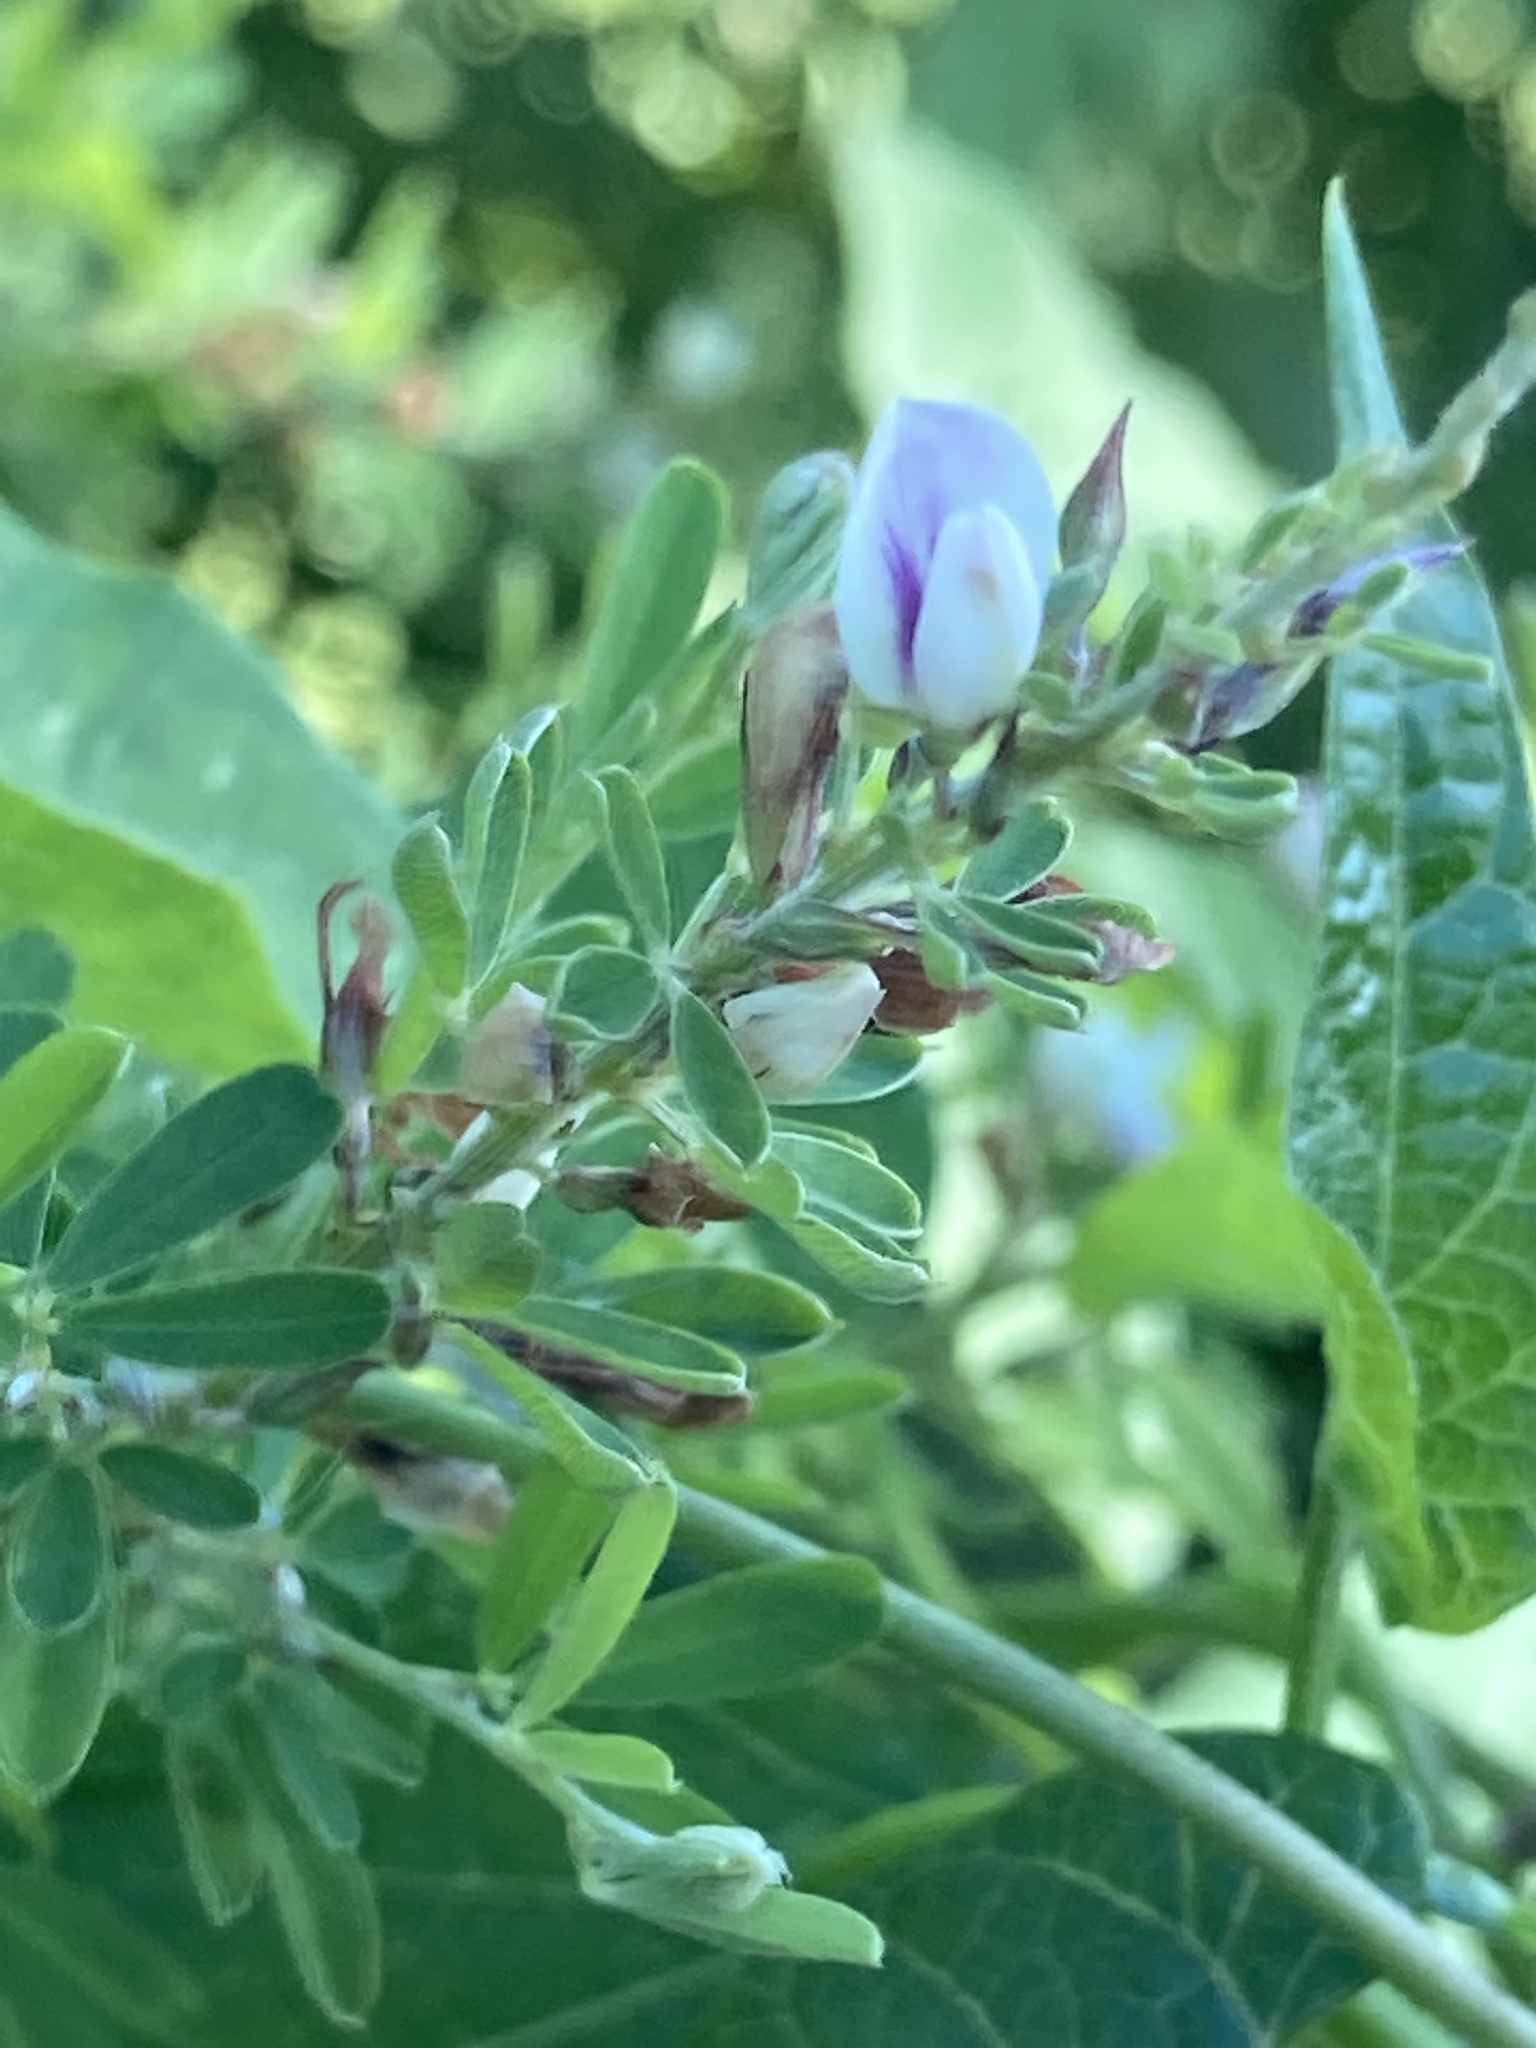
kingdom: Plantae
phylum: Tracheophyta
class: Magnoliopsida
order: Fabales
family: Fabaceae
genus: Lespedeza
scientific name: Lespedeza cuneata
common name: Chinese bush-clover
